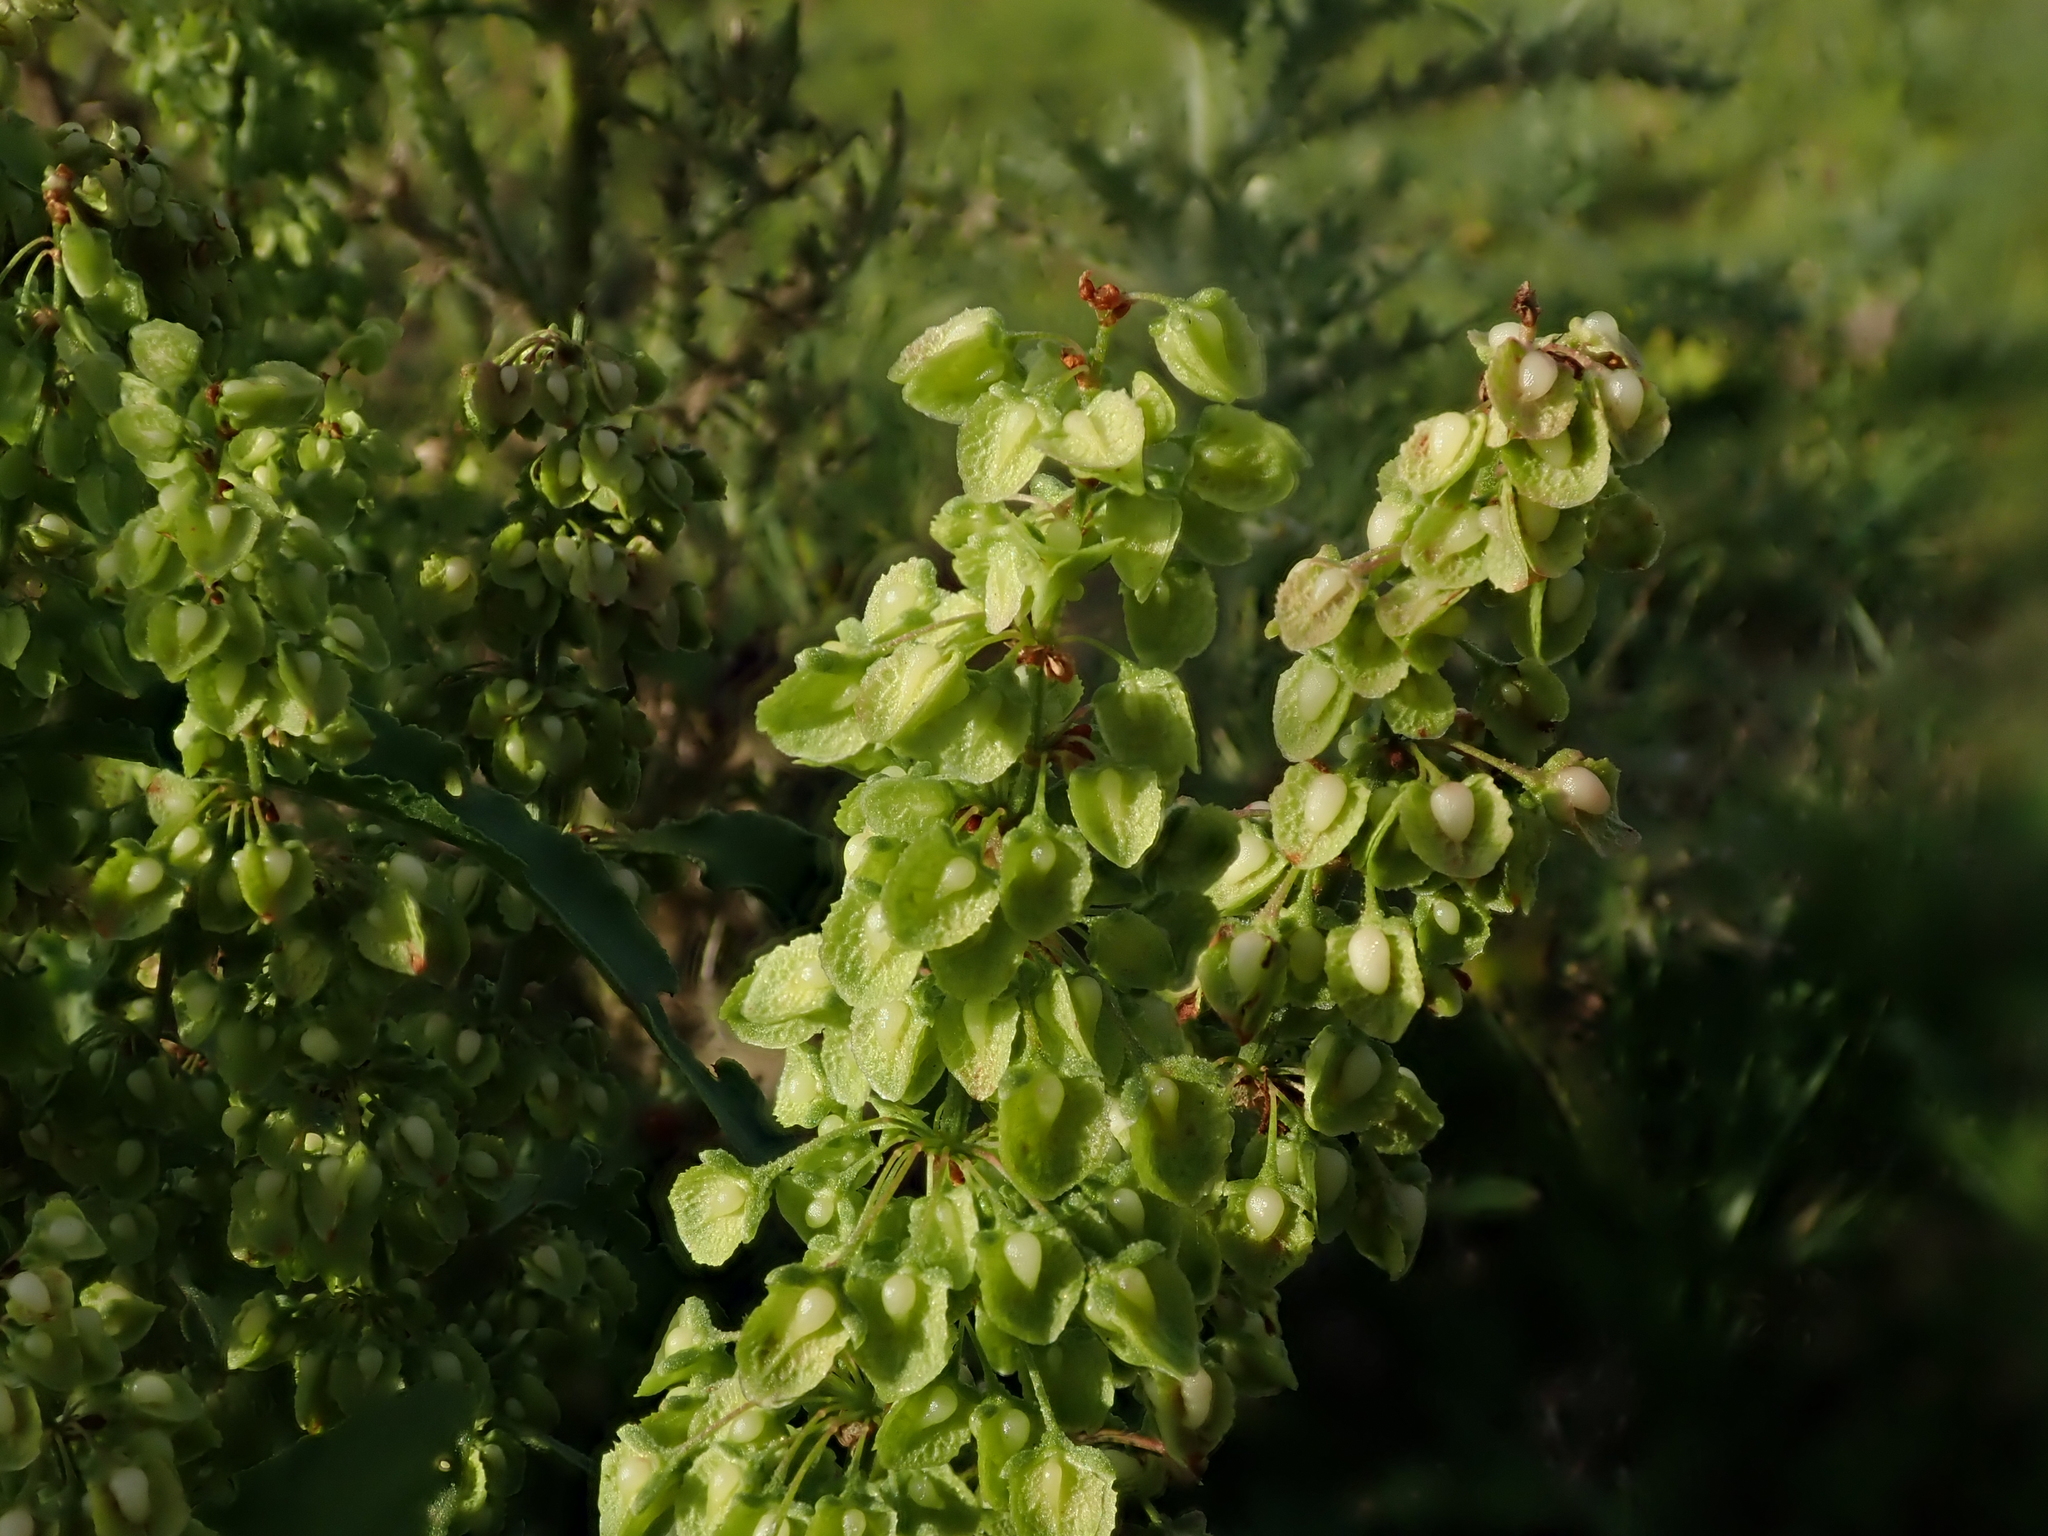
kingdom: Plantae
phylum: Tracheophyta
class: Magnoliopsida
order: Caryophyllales
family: Polygonaceae
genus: Rumex
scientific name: Rumex crispus
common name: Curled dock
